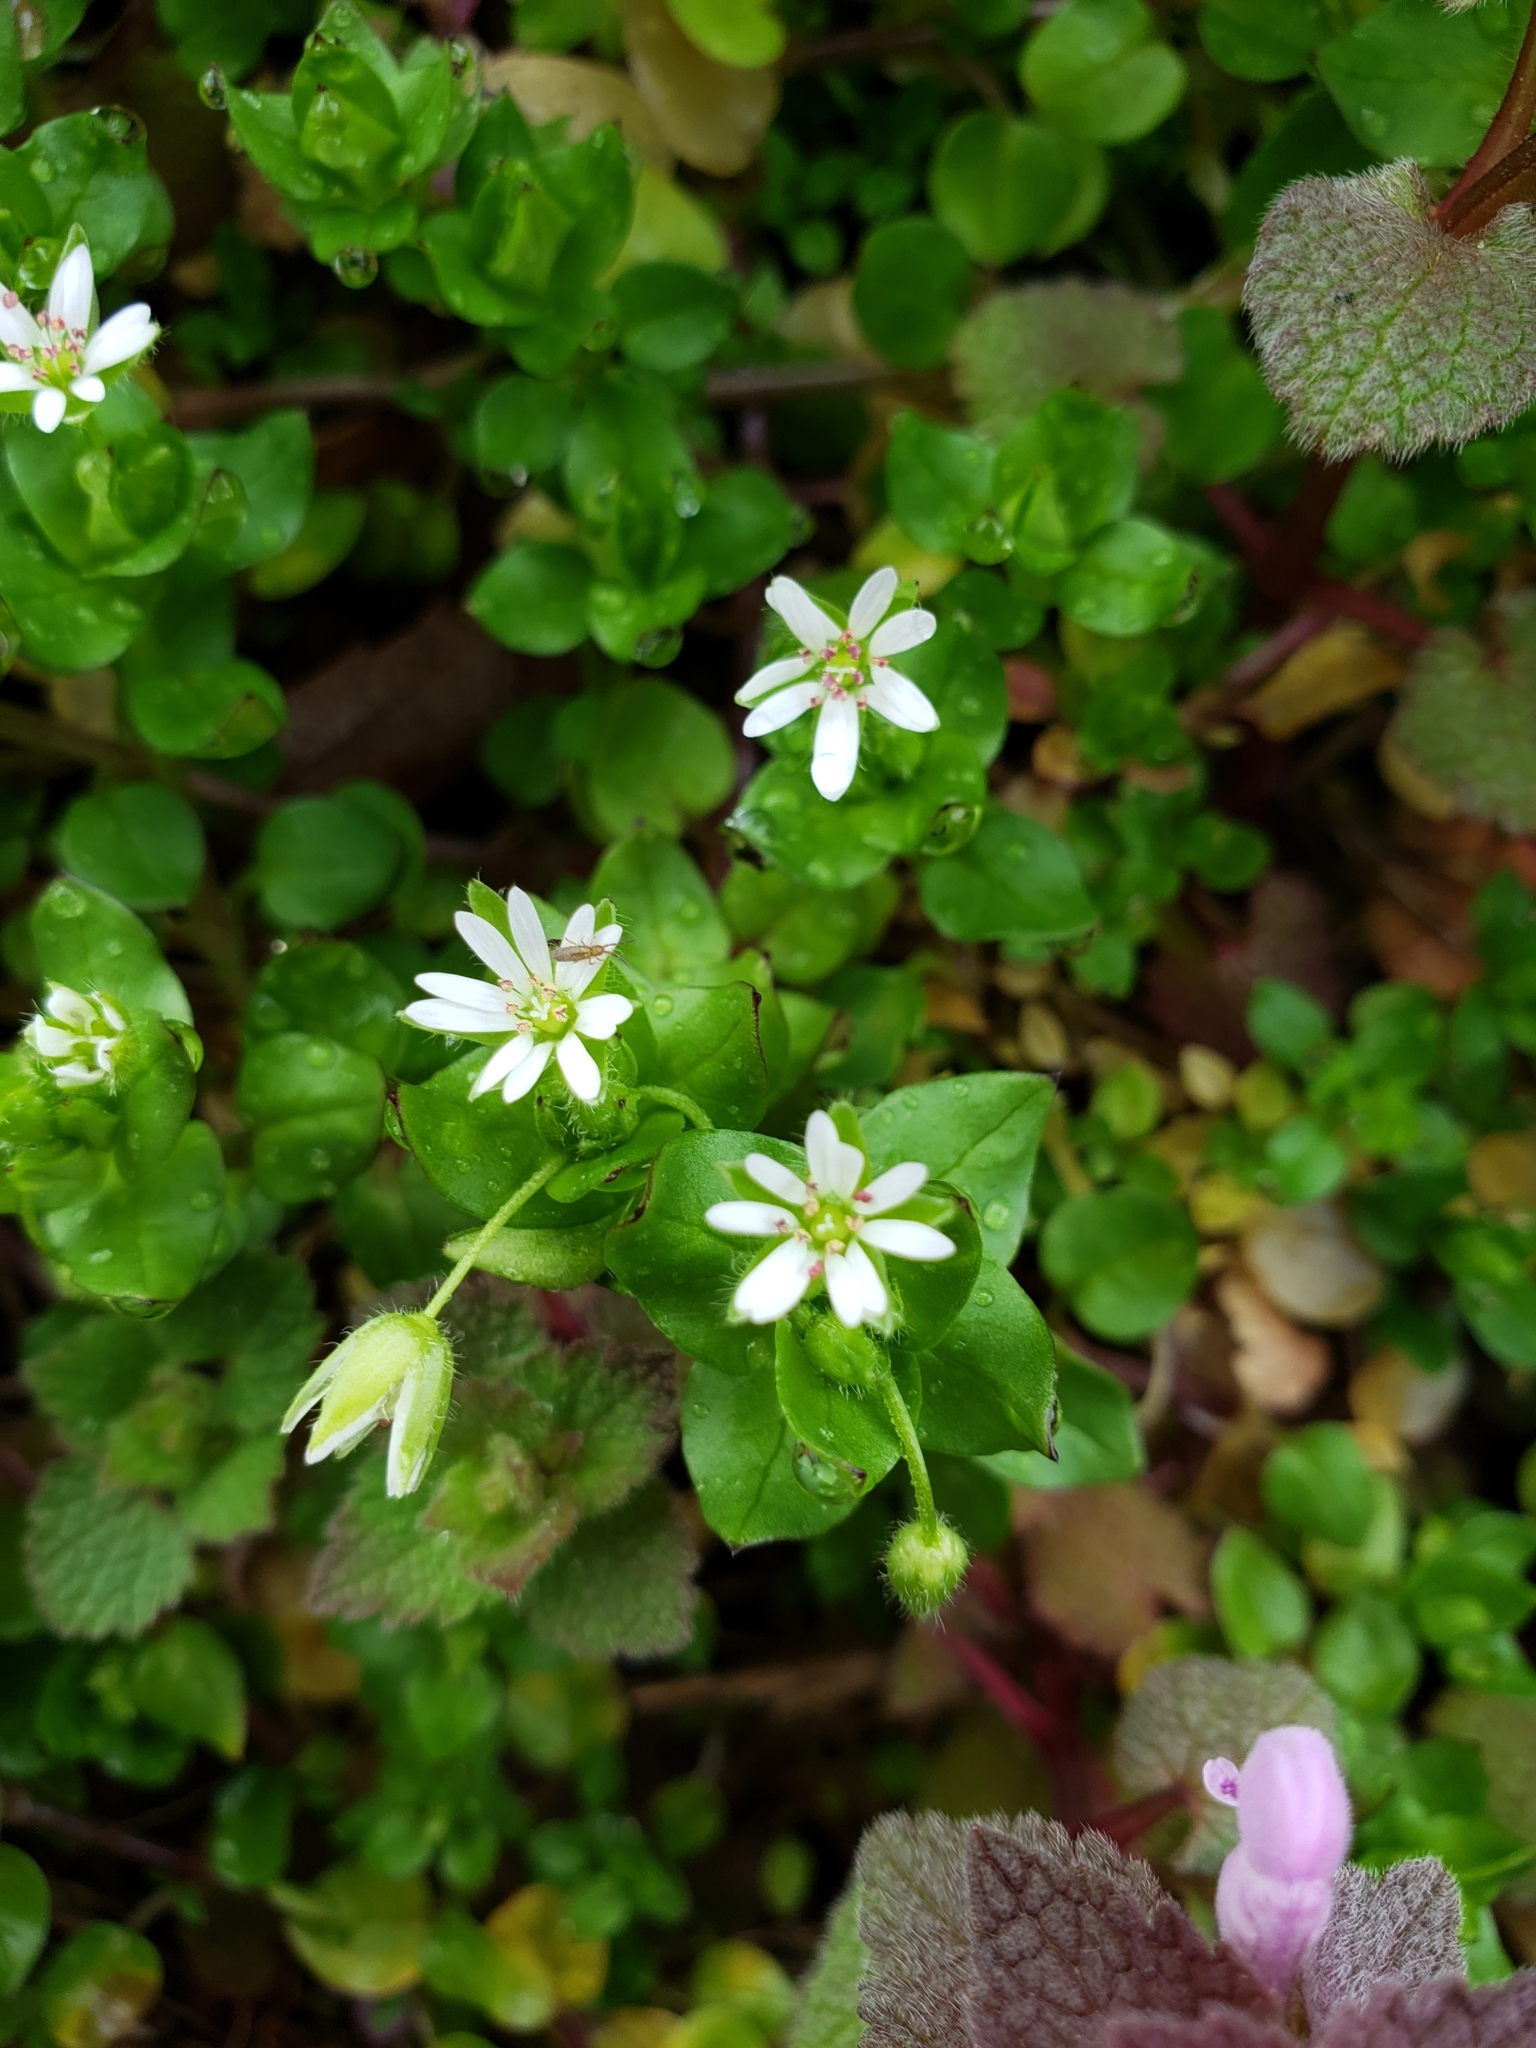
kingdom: Plantae
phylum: Tracheophyta
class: Magnoliopsida
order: Caryophyllales
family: Caryophyllaceae
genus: Stellaria
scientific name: Stellaria media
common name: Common chickweed
